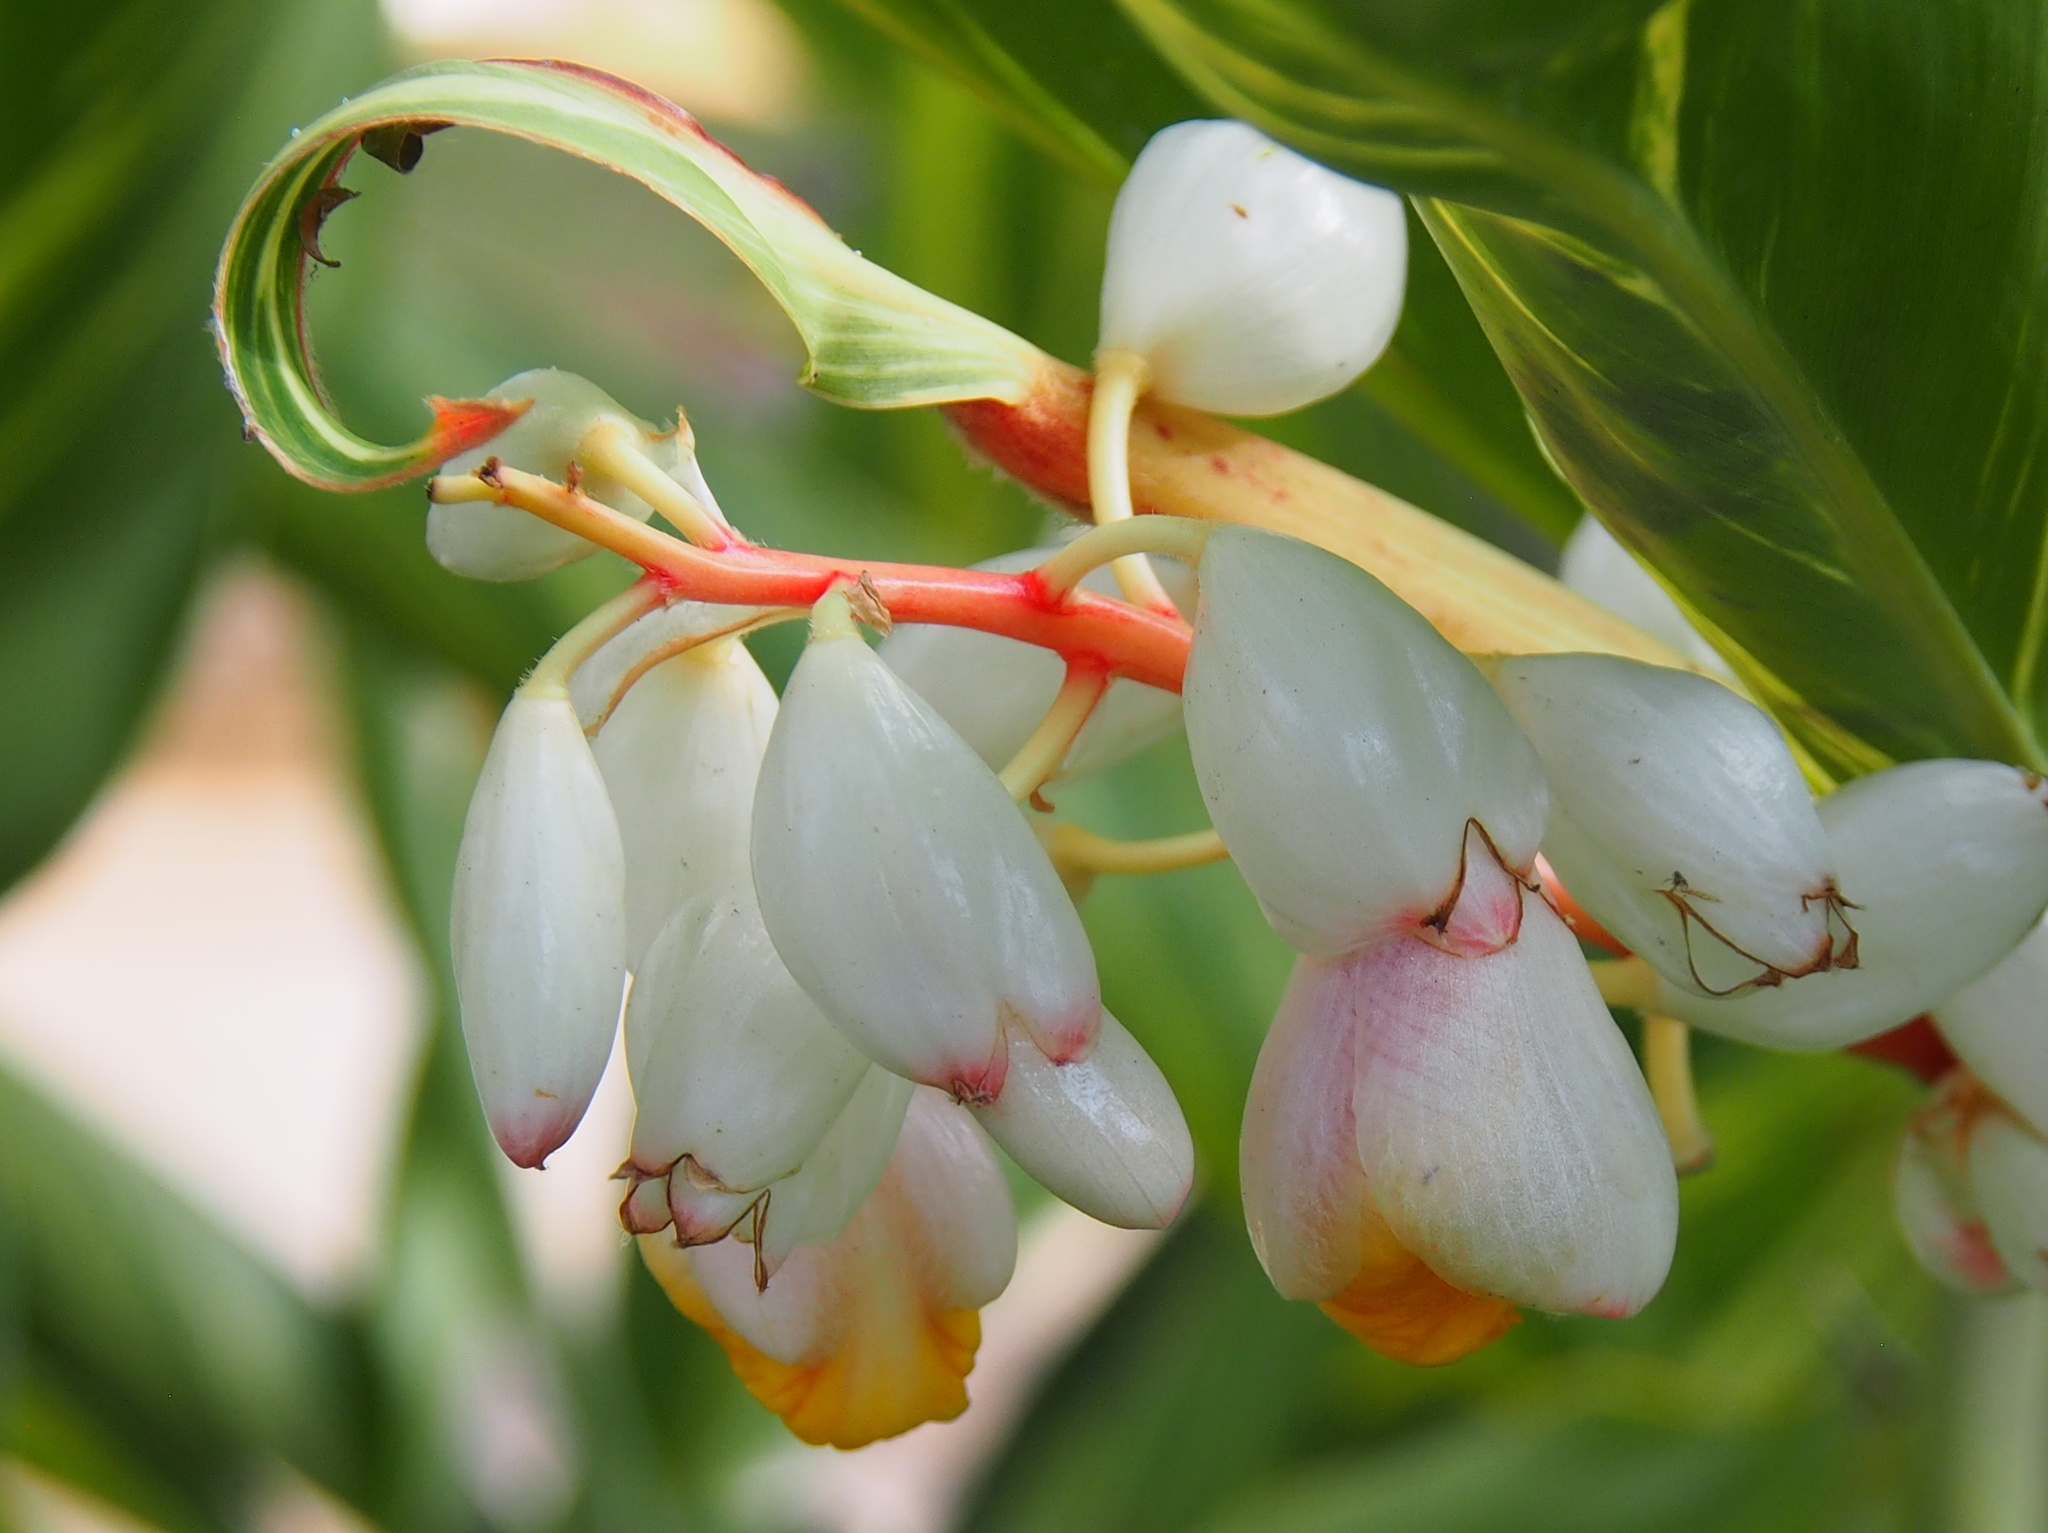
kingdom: Plantae
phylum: Tracheophyta
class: Liliopsida
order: Zingiberales
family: Zingiberaceae
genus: Alpinia
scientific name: Alpinia zerumbet
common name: Shellplant
